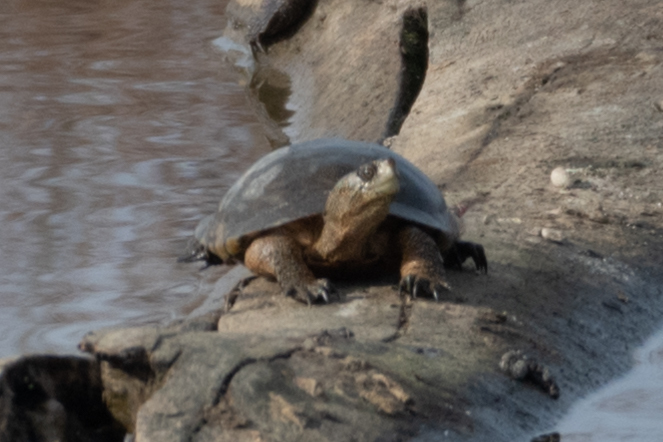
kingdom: Animalia
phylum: Chordata
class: Testudines
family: Emydidae
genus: Actinemys
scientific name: Actinemys marmorata
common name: Western pond turtle
